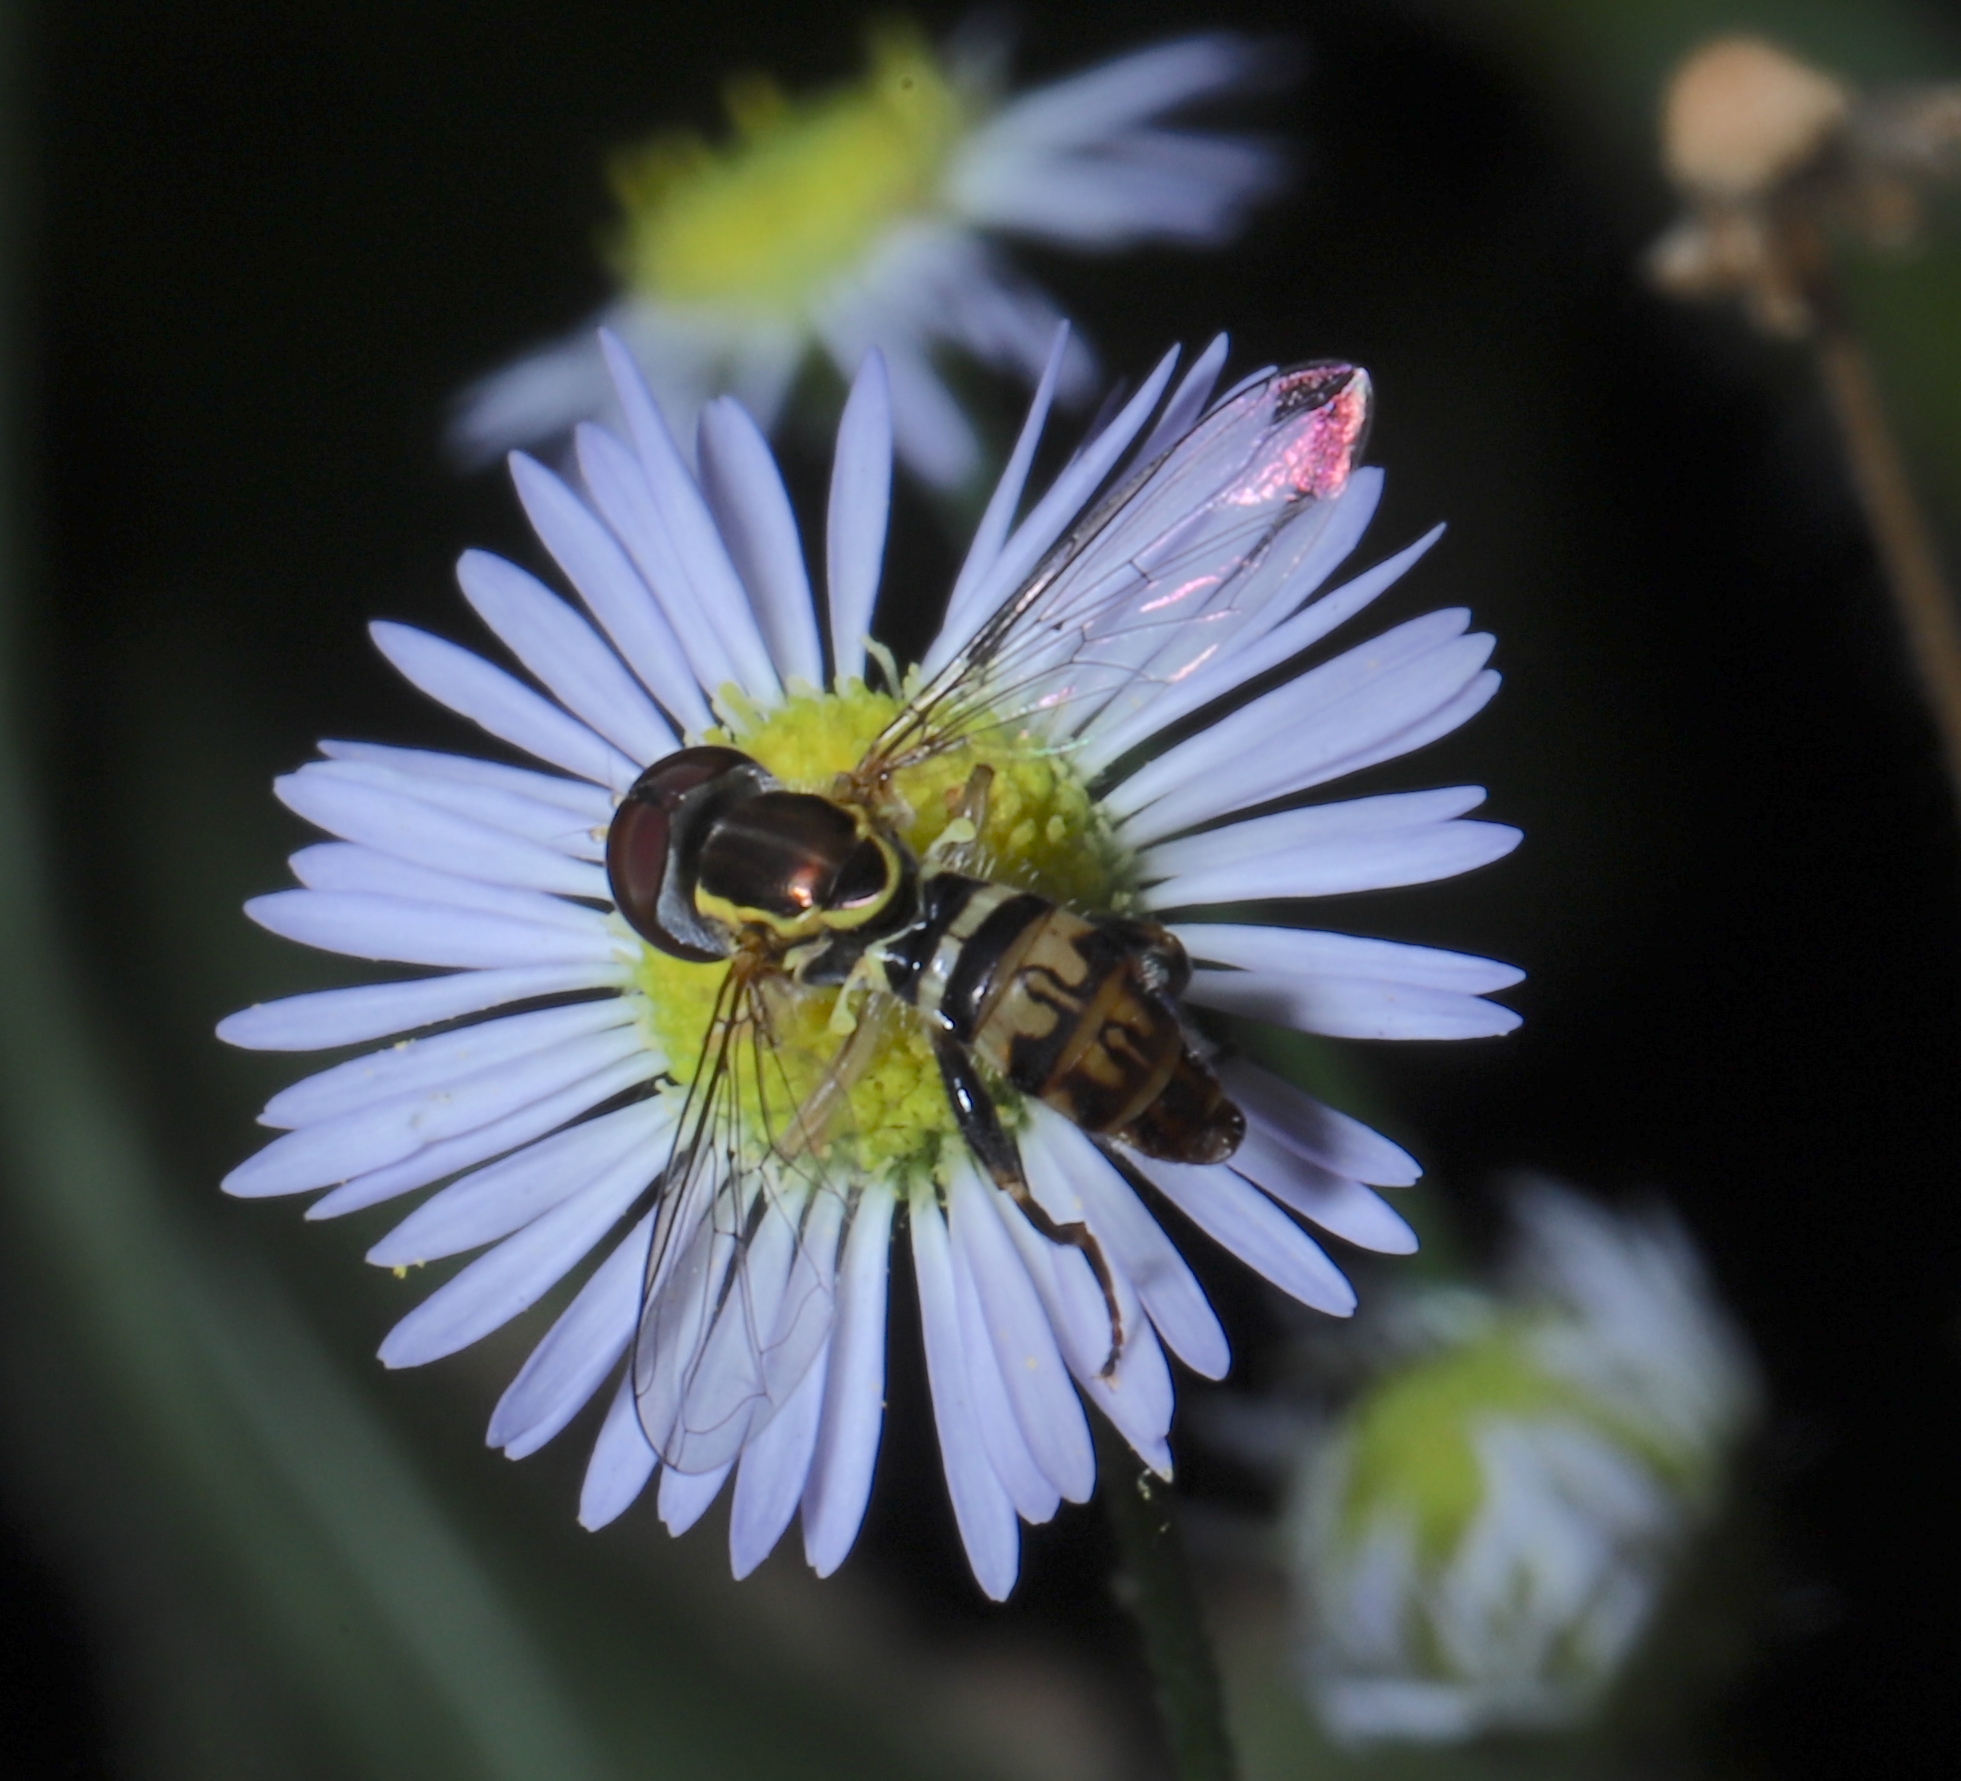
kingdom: Animalia
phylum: Arthropoda
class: Insecta
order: Diptera
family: Syrphidae
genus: Toxomerus
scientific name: Toxomerus geminatus
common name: Eastern calligrapher
